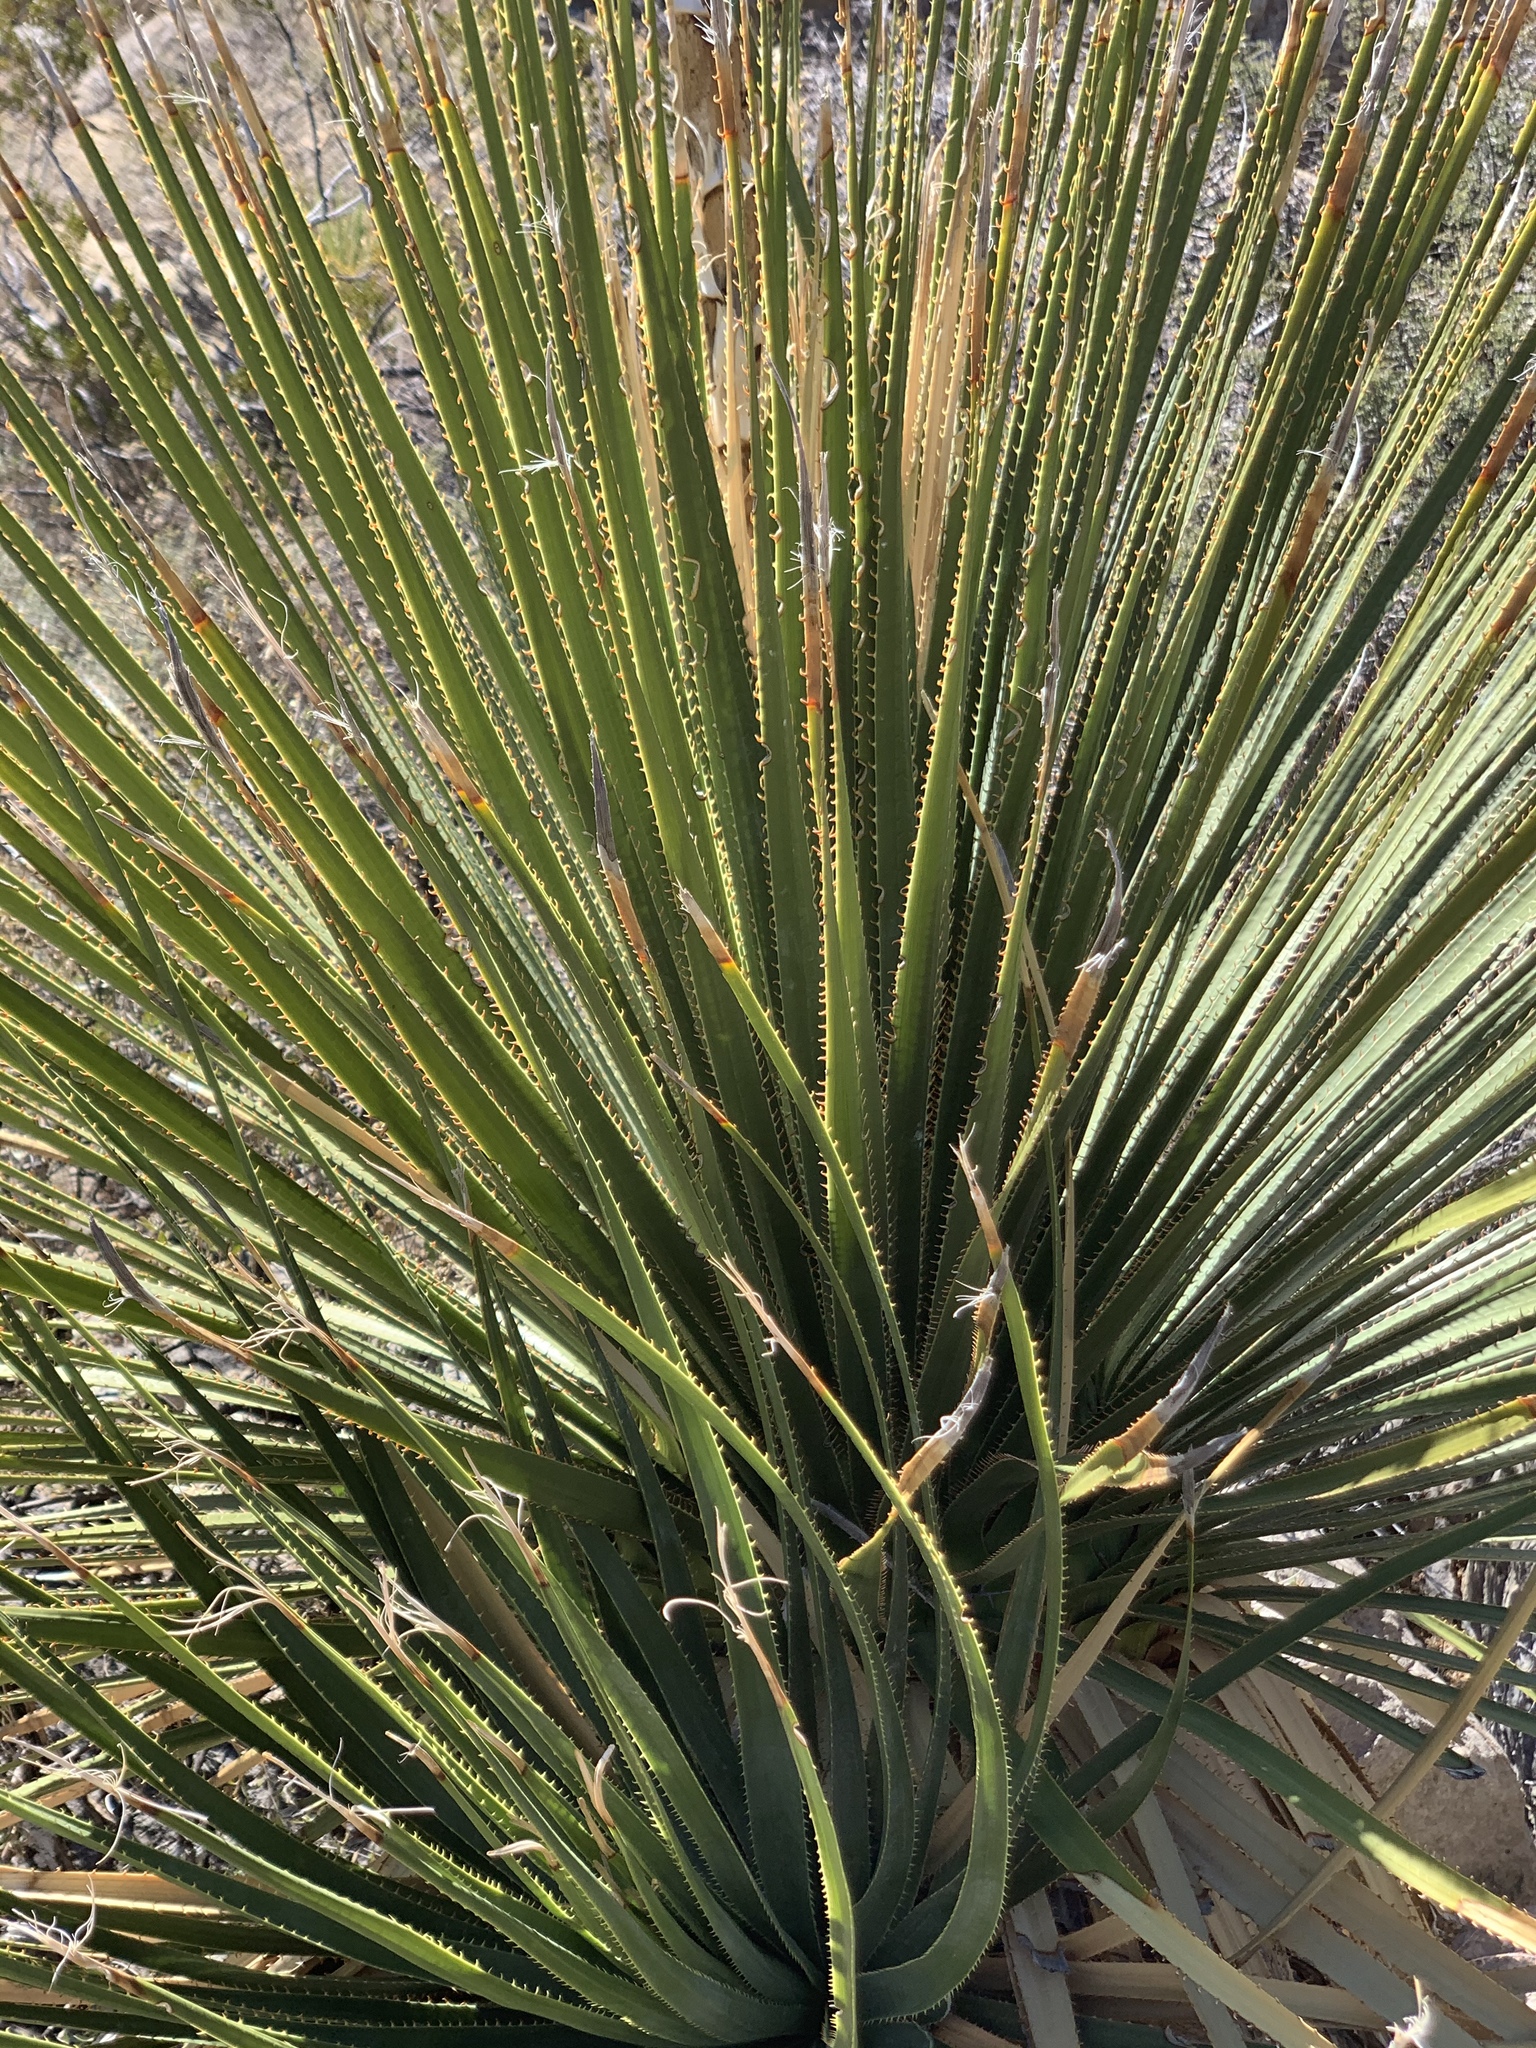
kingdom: Plantae
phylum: Tracheophyta
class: Liliopsida
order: Asparagales
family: Asparagaceae
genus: Dasylirion
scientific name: Dasylirion wheeleri
